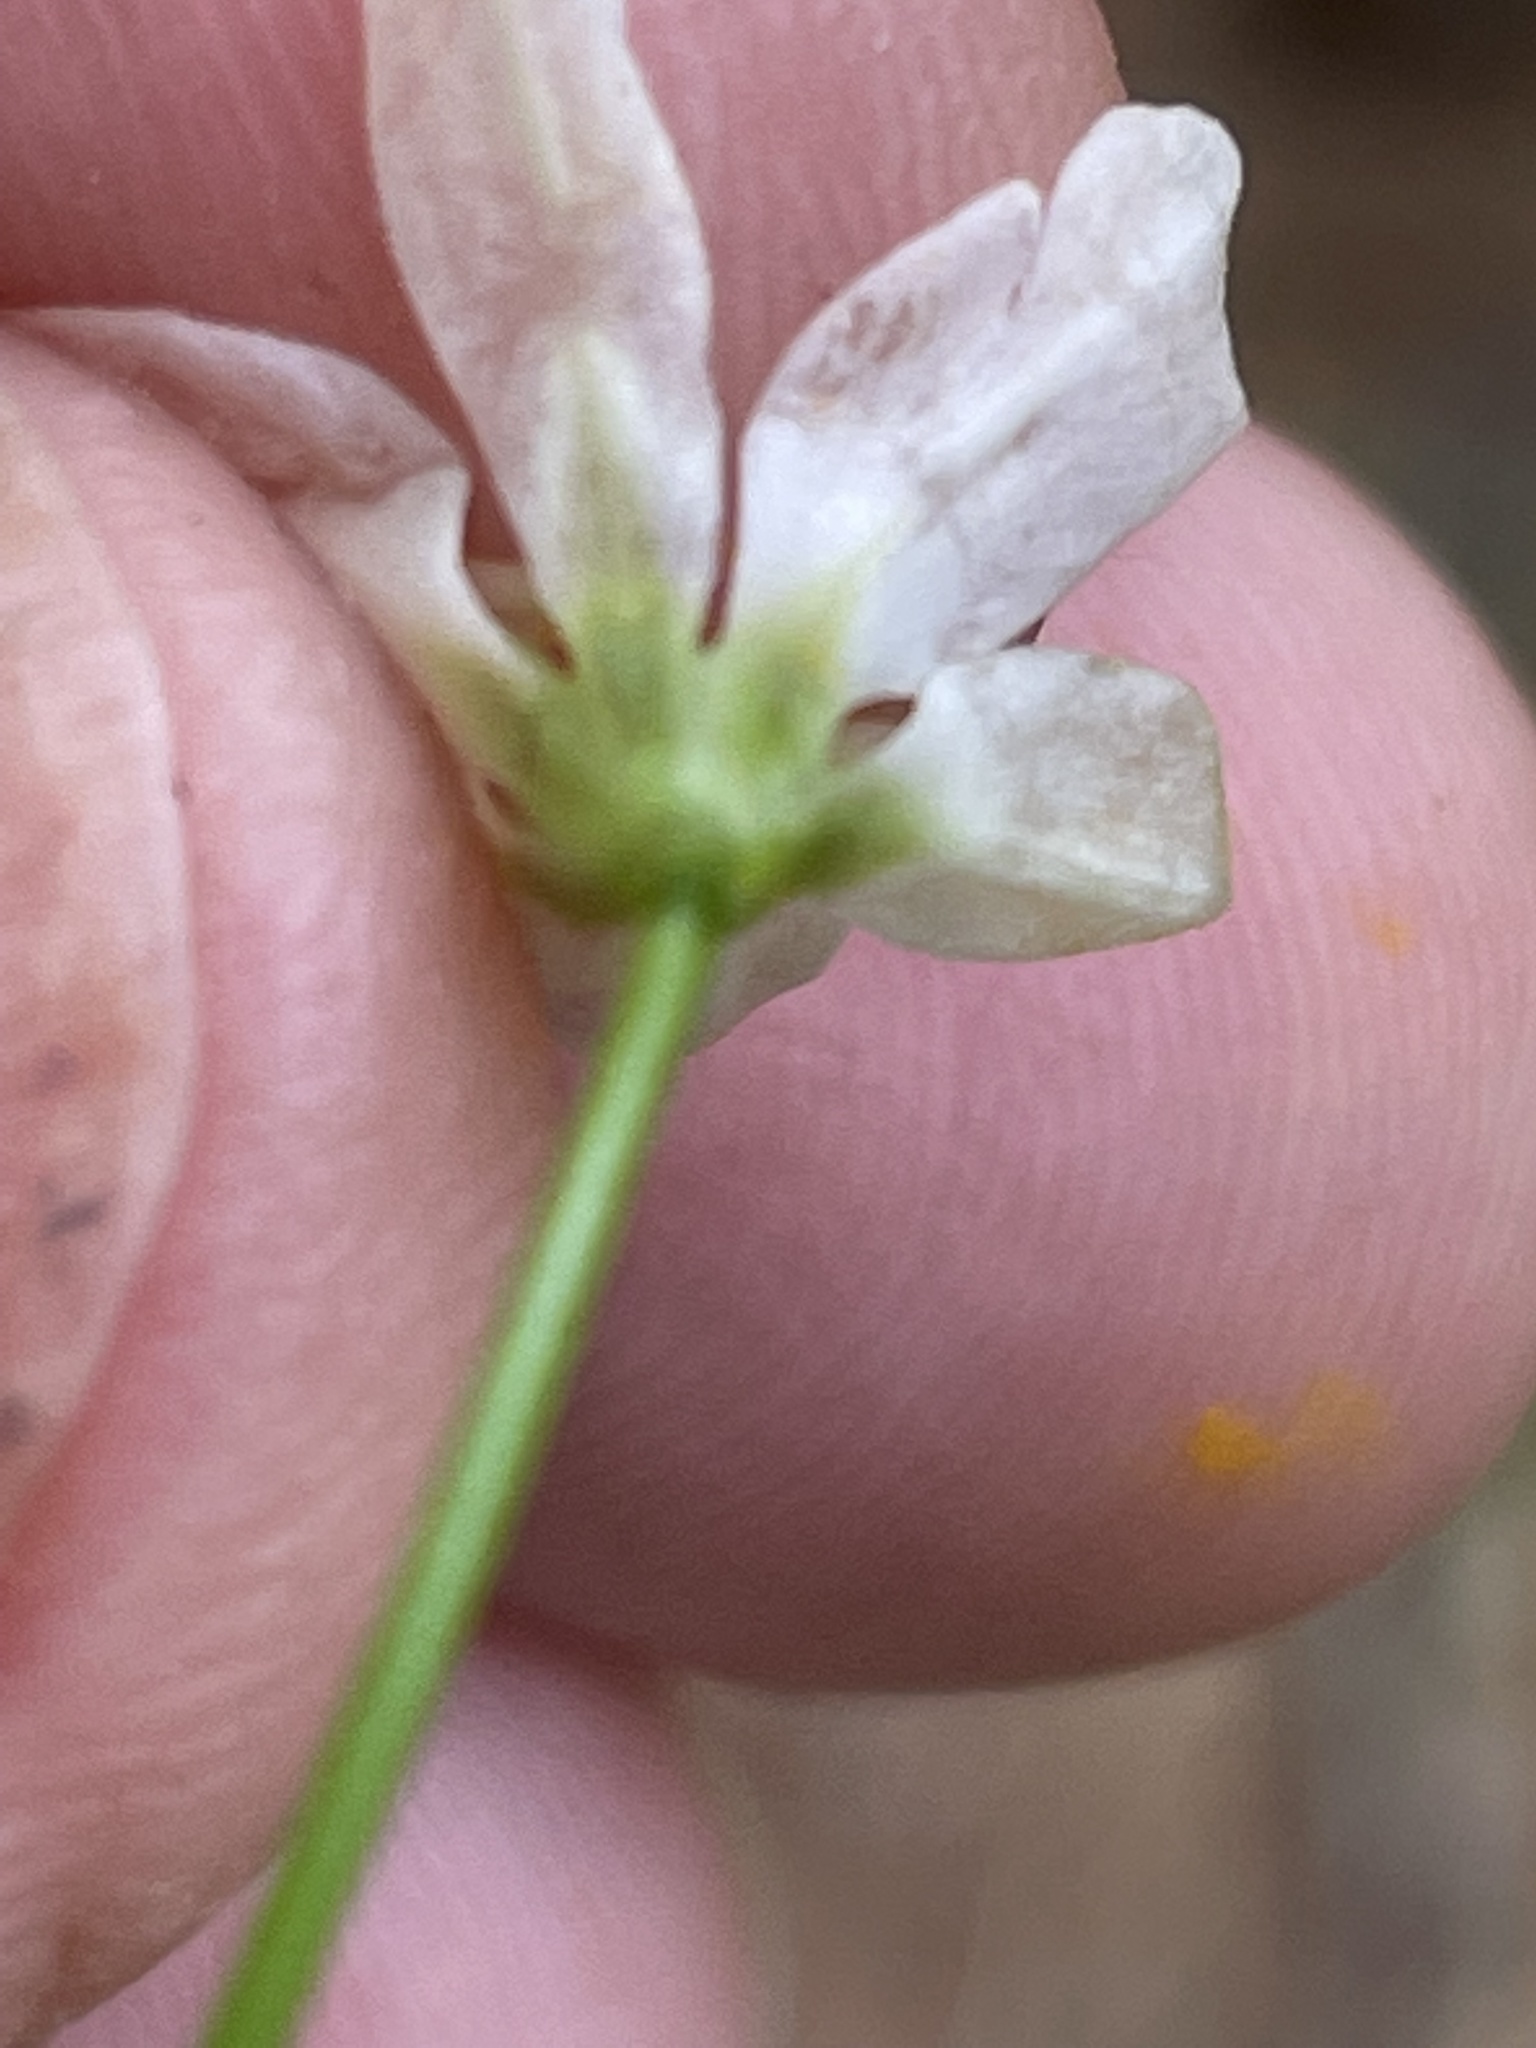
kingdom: Plantae
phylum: Tracheophyta
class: Liliopsida
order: Asparagales
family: Amaryllidaceae
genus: Nothoscordum
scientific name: Nothoscordum gracile
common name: Slender false garlic
